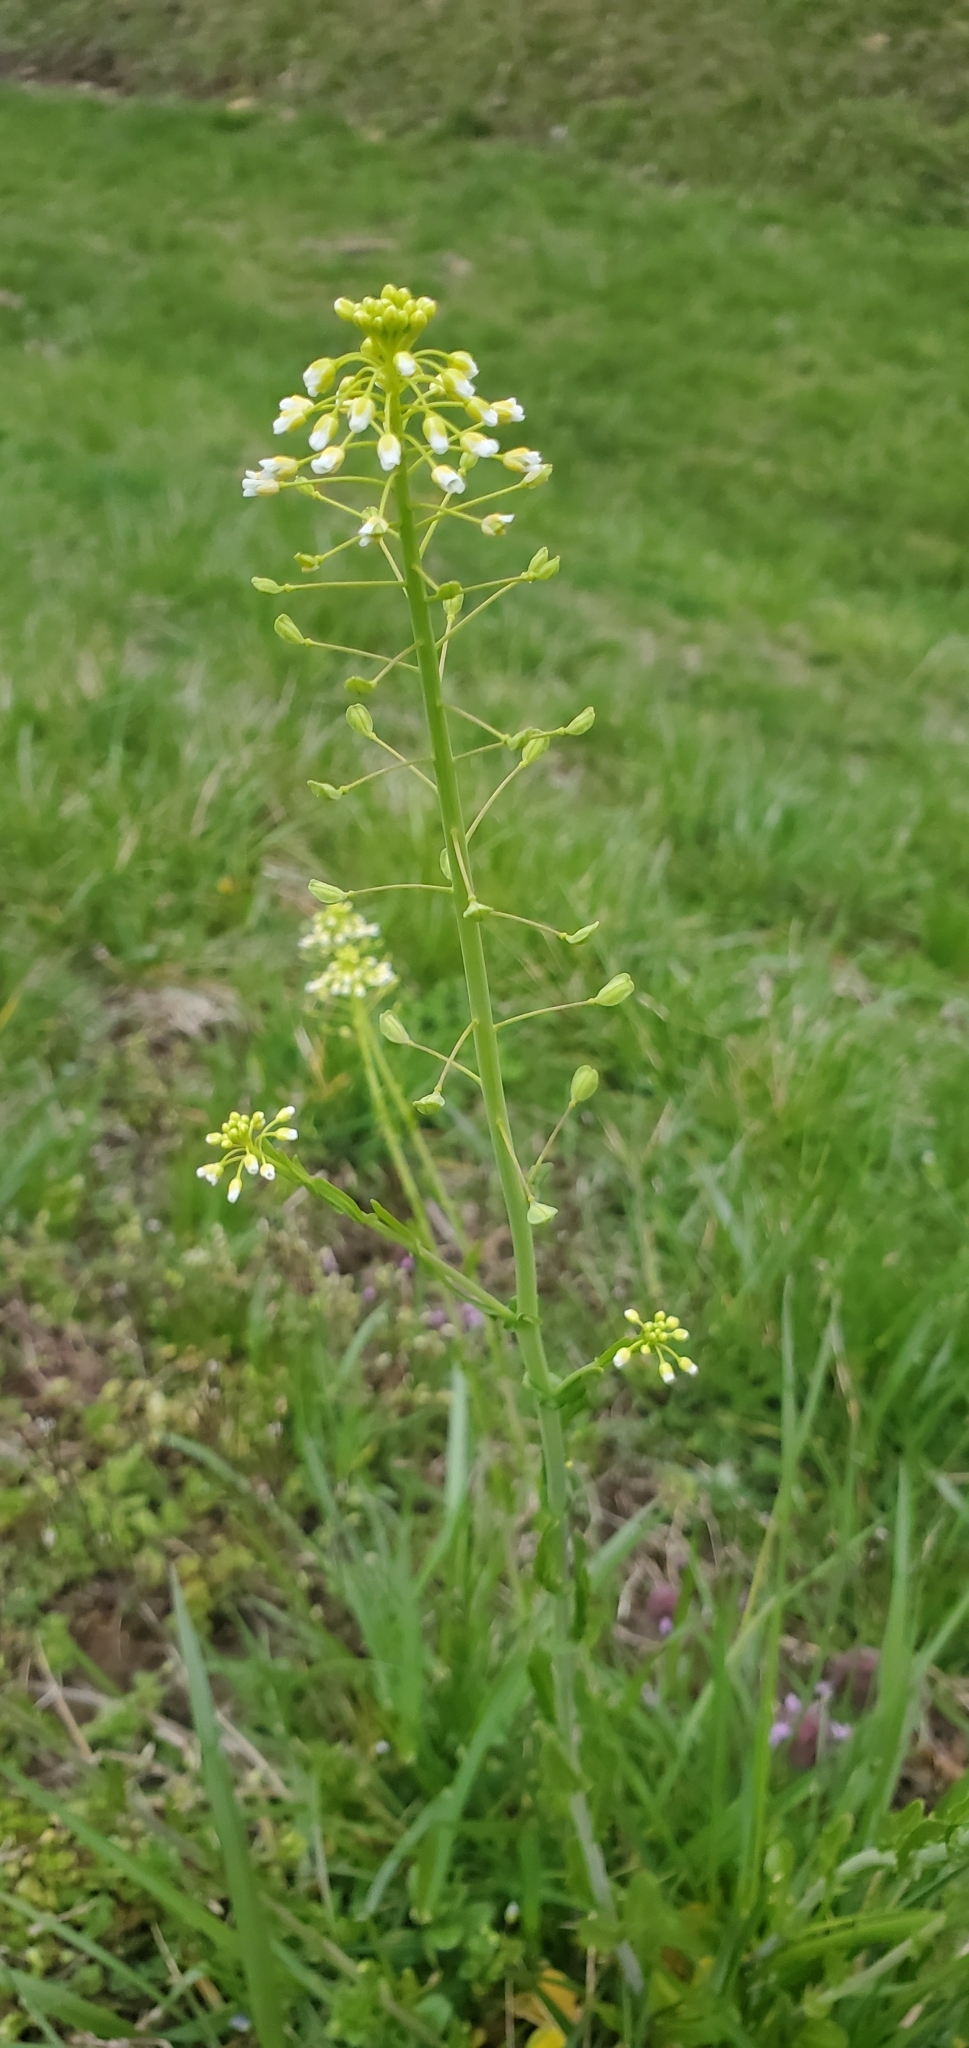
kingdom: Plantae
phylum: Tracheophyta
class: Magnoliopsida
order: Brassicales
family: Brassicaceae
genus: Mummenhoffia
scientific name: Mummenhoffia alliacea
